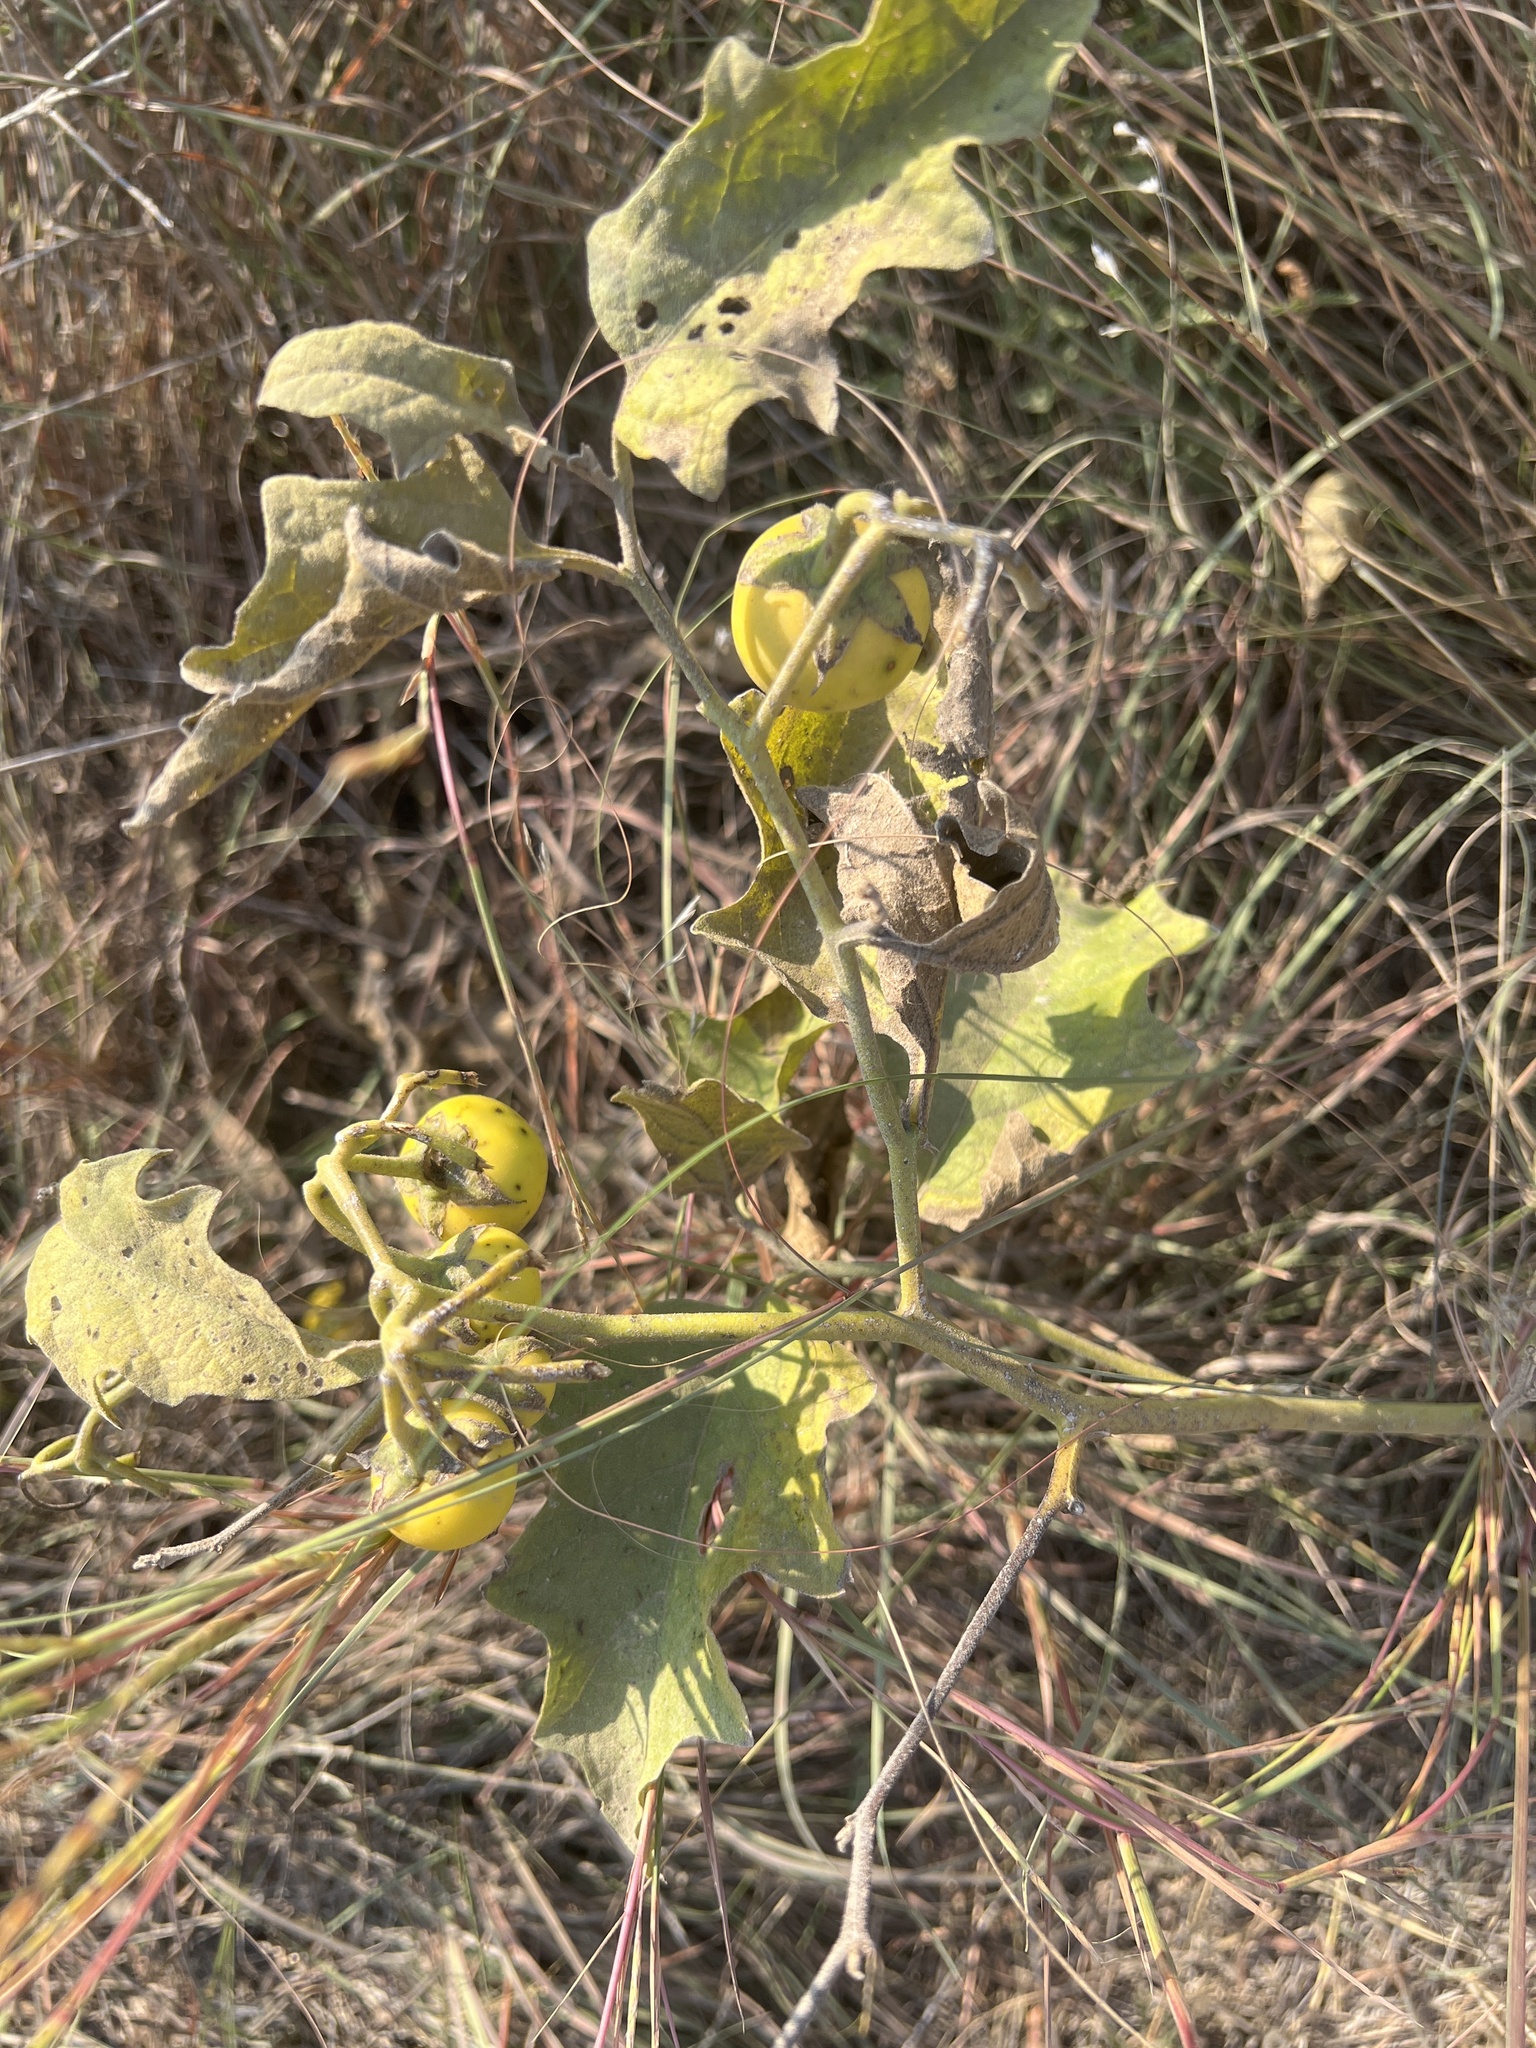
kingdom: Plantae
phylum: Tracheophyta
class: Magnoliopsida
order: Solanales
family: Solanaceae
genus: Solanum
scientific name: Solanum dimidiatum
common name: Carolina horse-nettle
